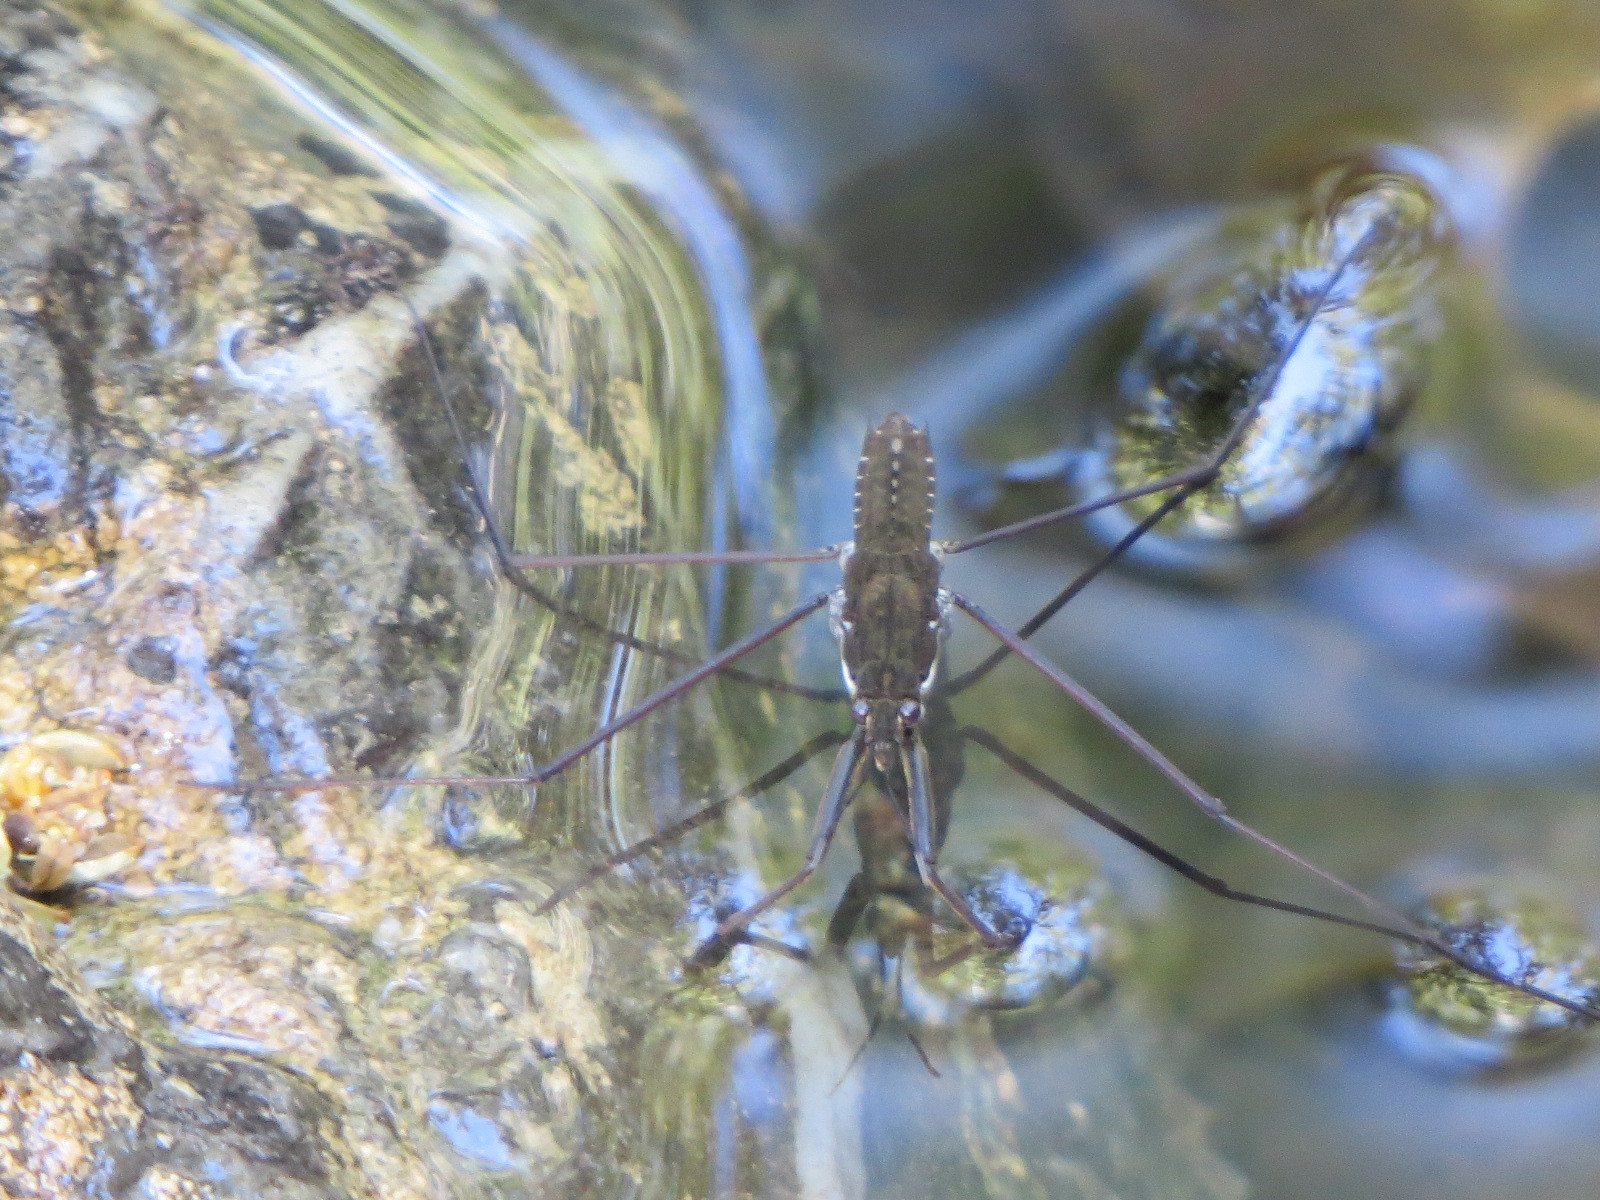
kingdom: Animalia
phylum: Arthropoda
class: Insecta
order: Hemiptera
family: Gerridae
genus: Aquarius
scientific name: Aquarius remigis
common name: Common water strider
